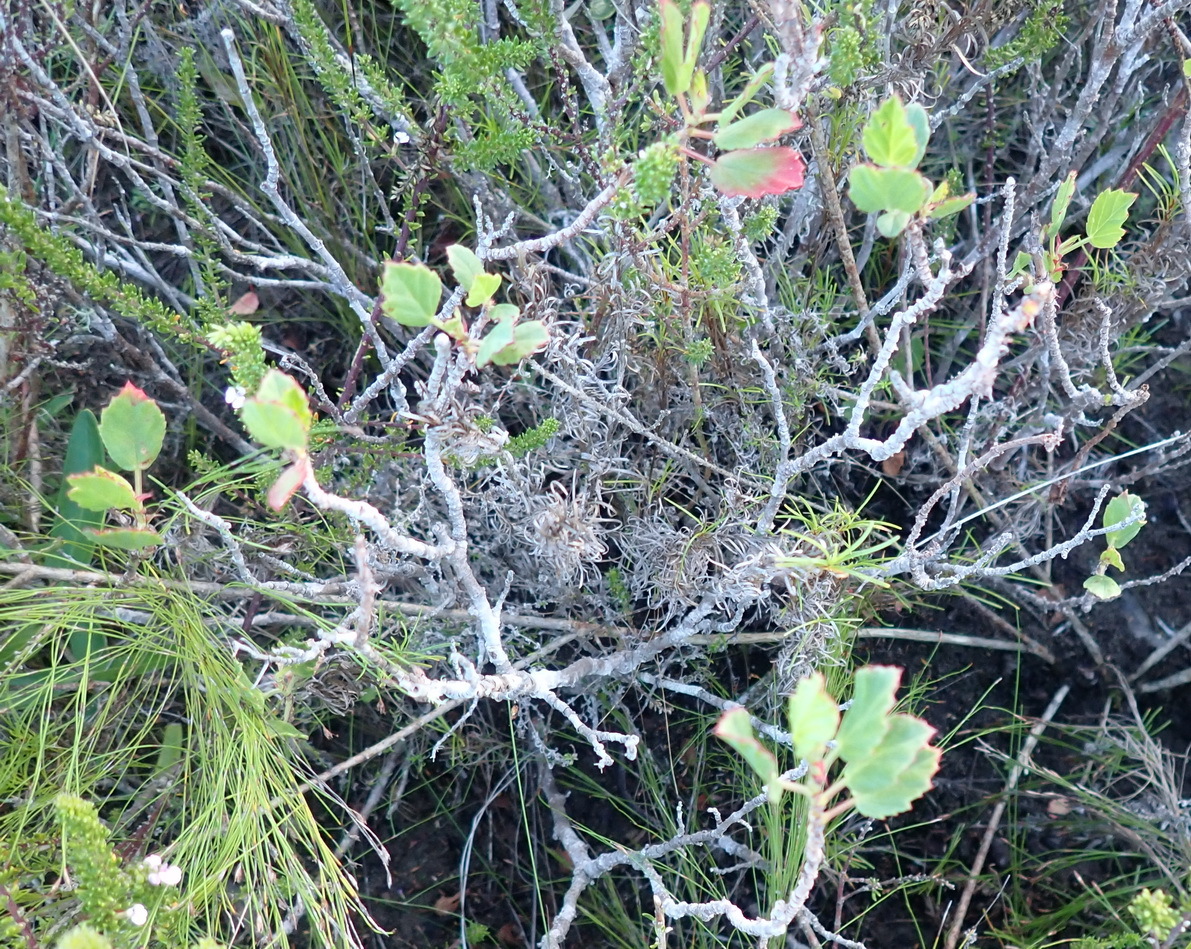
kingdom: Plantae
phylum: Tracheophyta
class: Magnoliopsida
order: Geraniales
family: Geraniaceae
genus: Pelargonium
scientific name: Pelargonium betulinum
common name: Birch-leaf pelargonium
